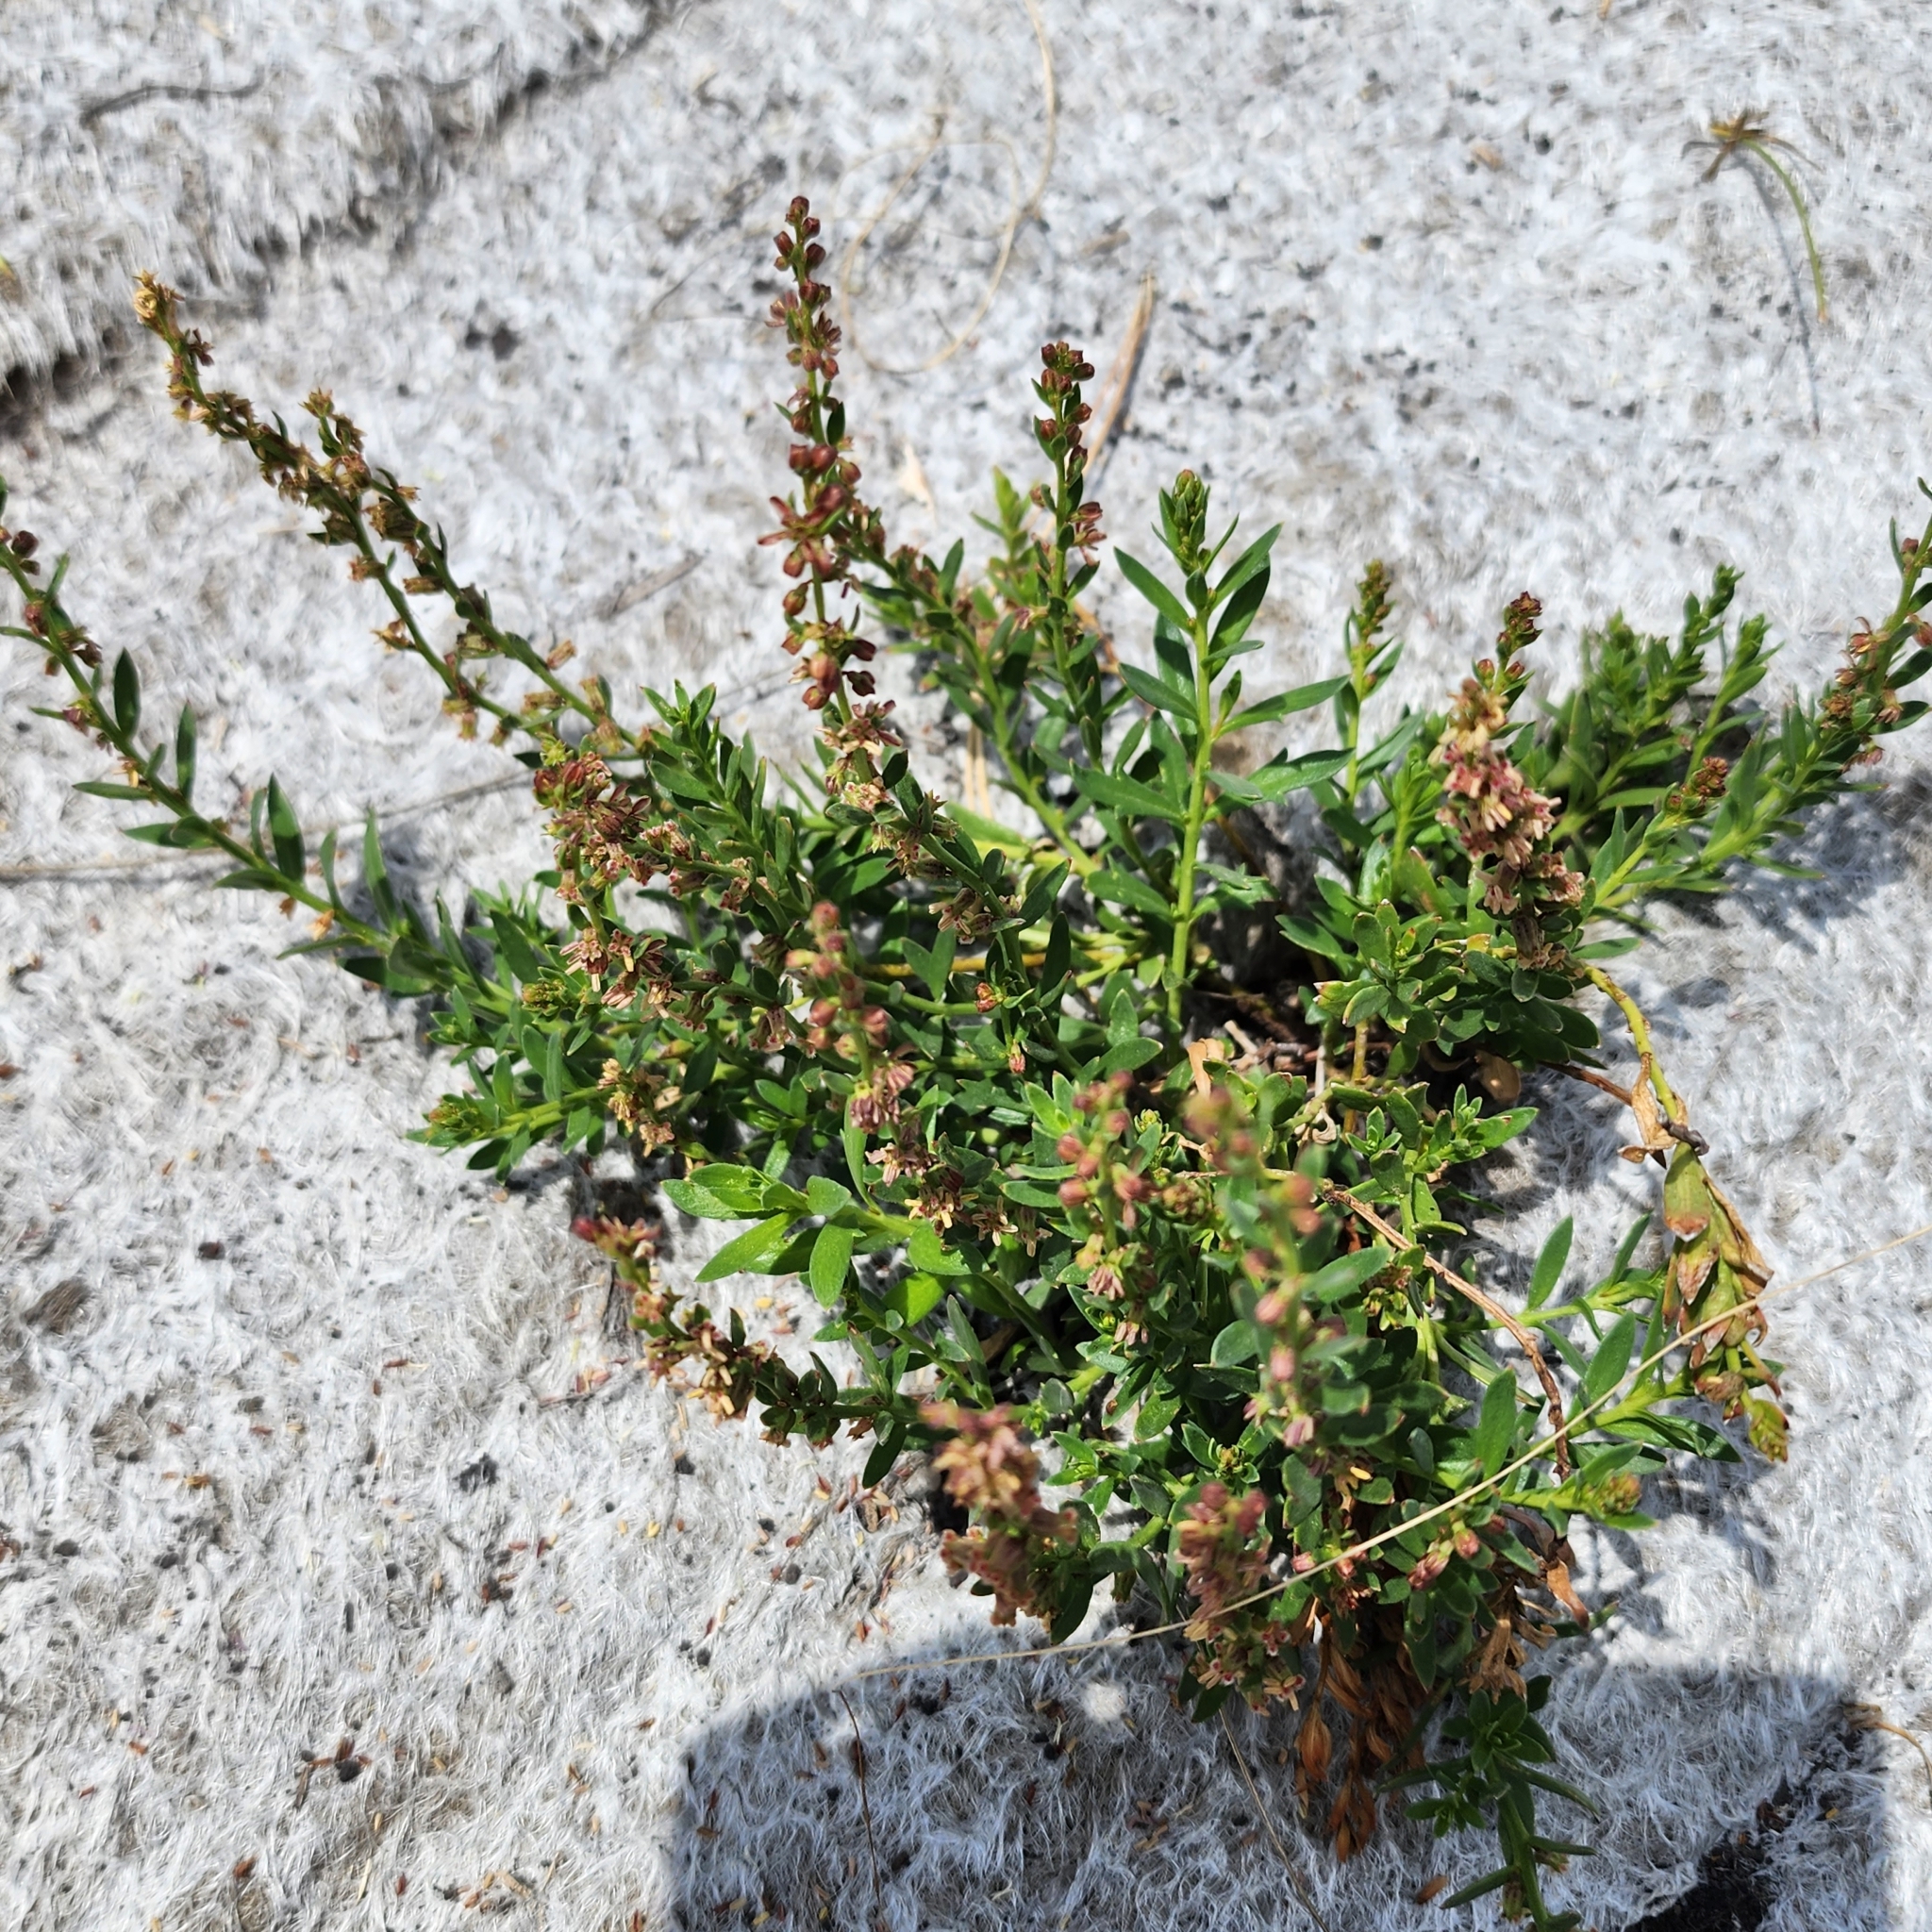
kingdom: Plantae
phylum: Tracheophyta
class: Magnoliopsida
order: Brassicales
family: Brassicaceae
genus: Lepidium
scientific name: Lepidium africanum
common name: African pepperwort
